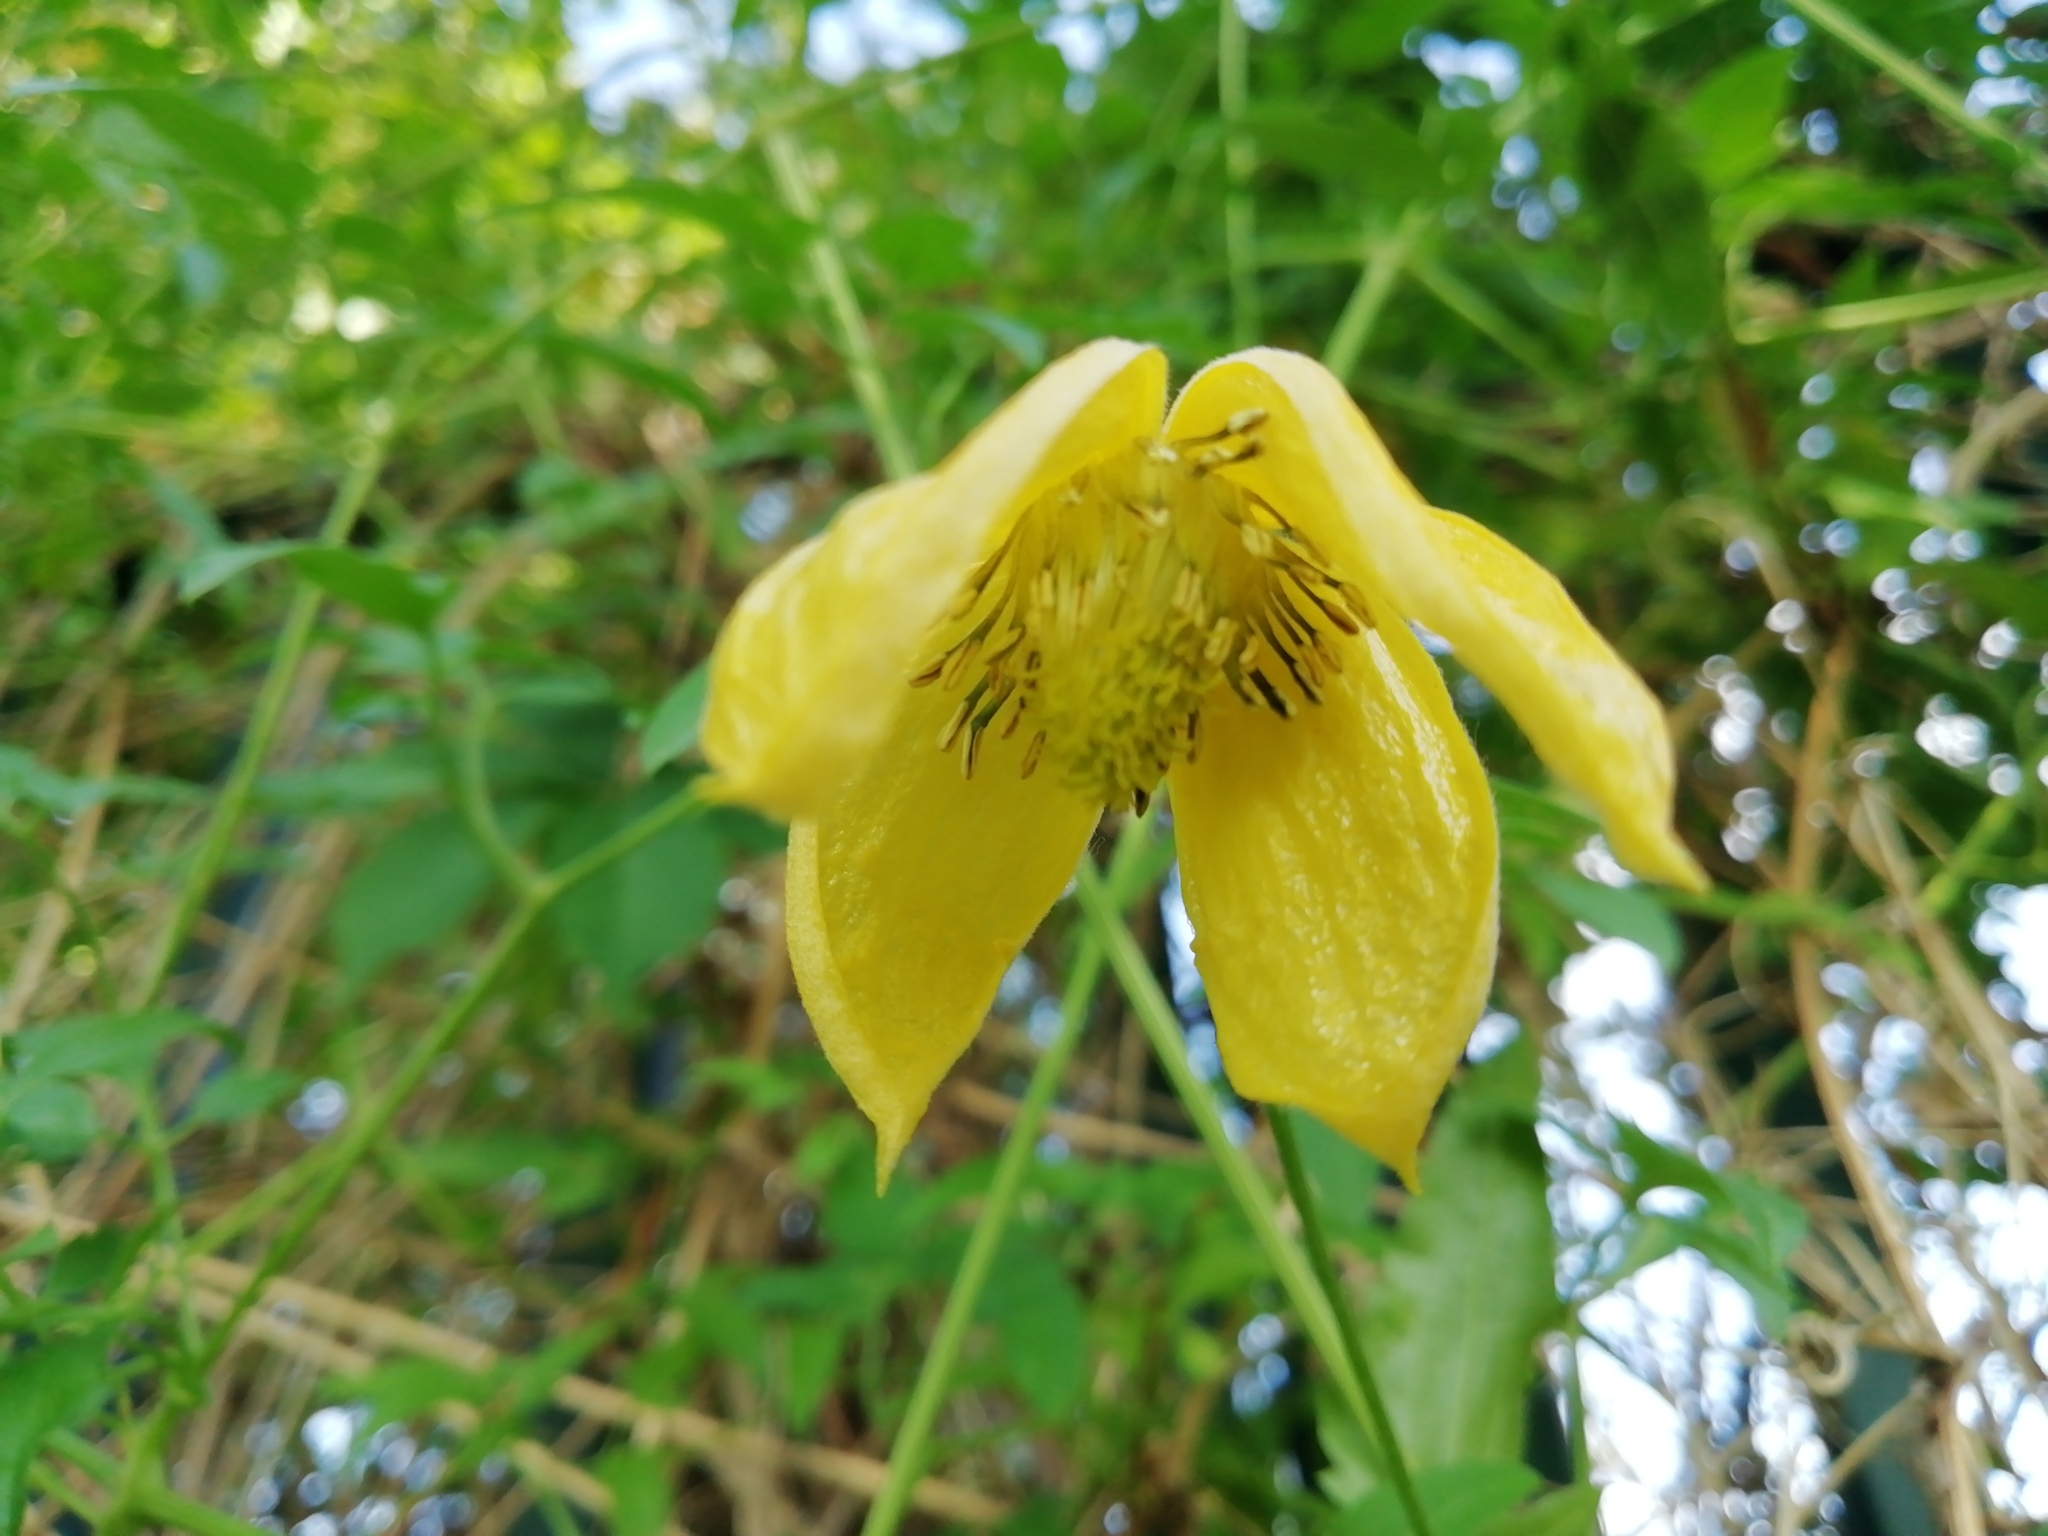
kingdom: Plantae
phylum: Tracheophyta
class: Magnoliopsida
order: Ranunculales
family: Ranunculaceae
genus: Clematis
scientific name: Clematis tangutica
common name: Orange-peel clematis
